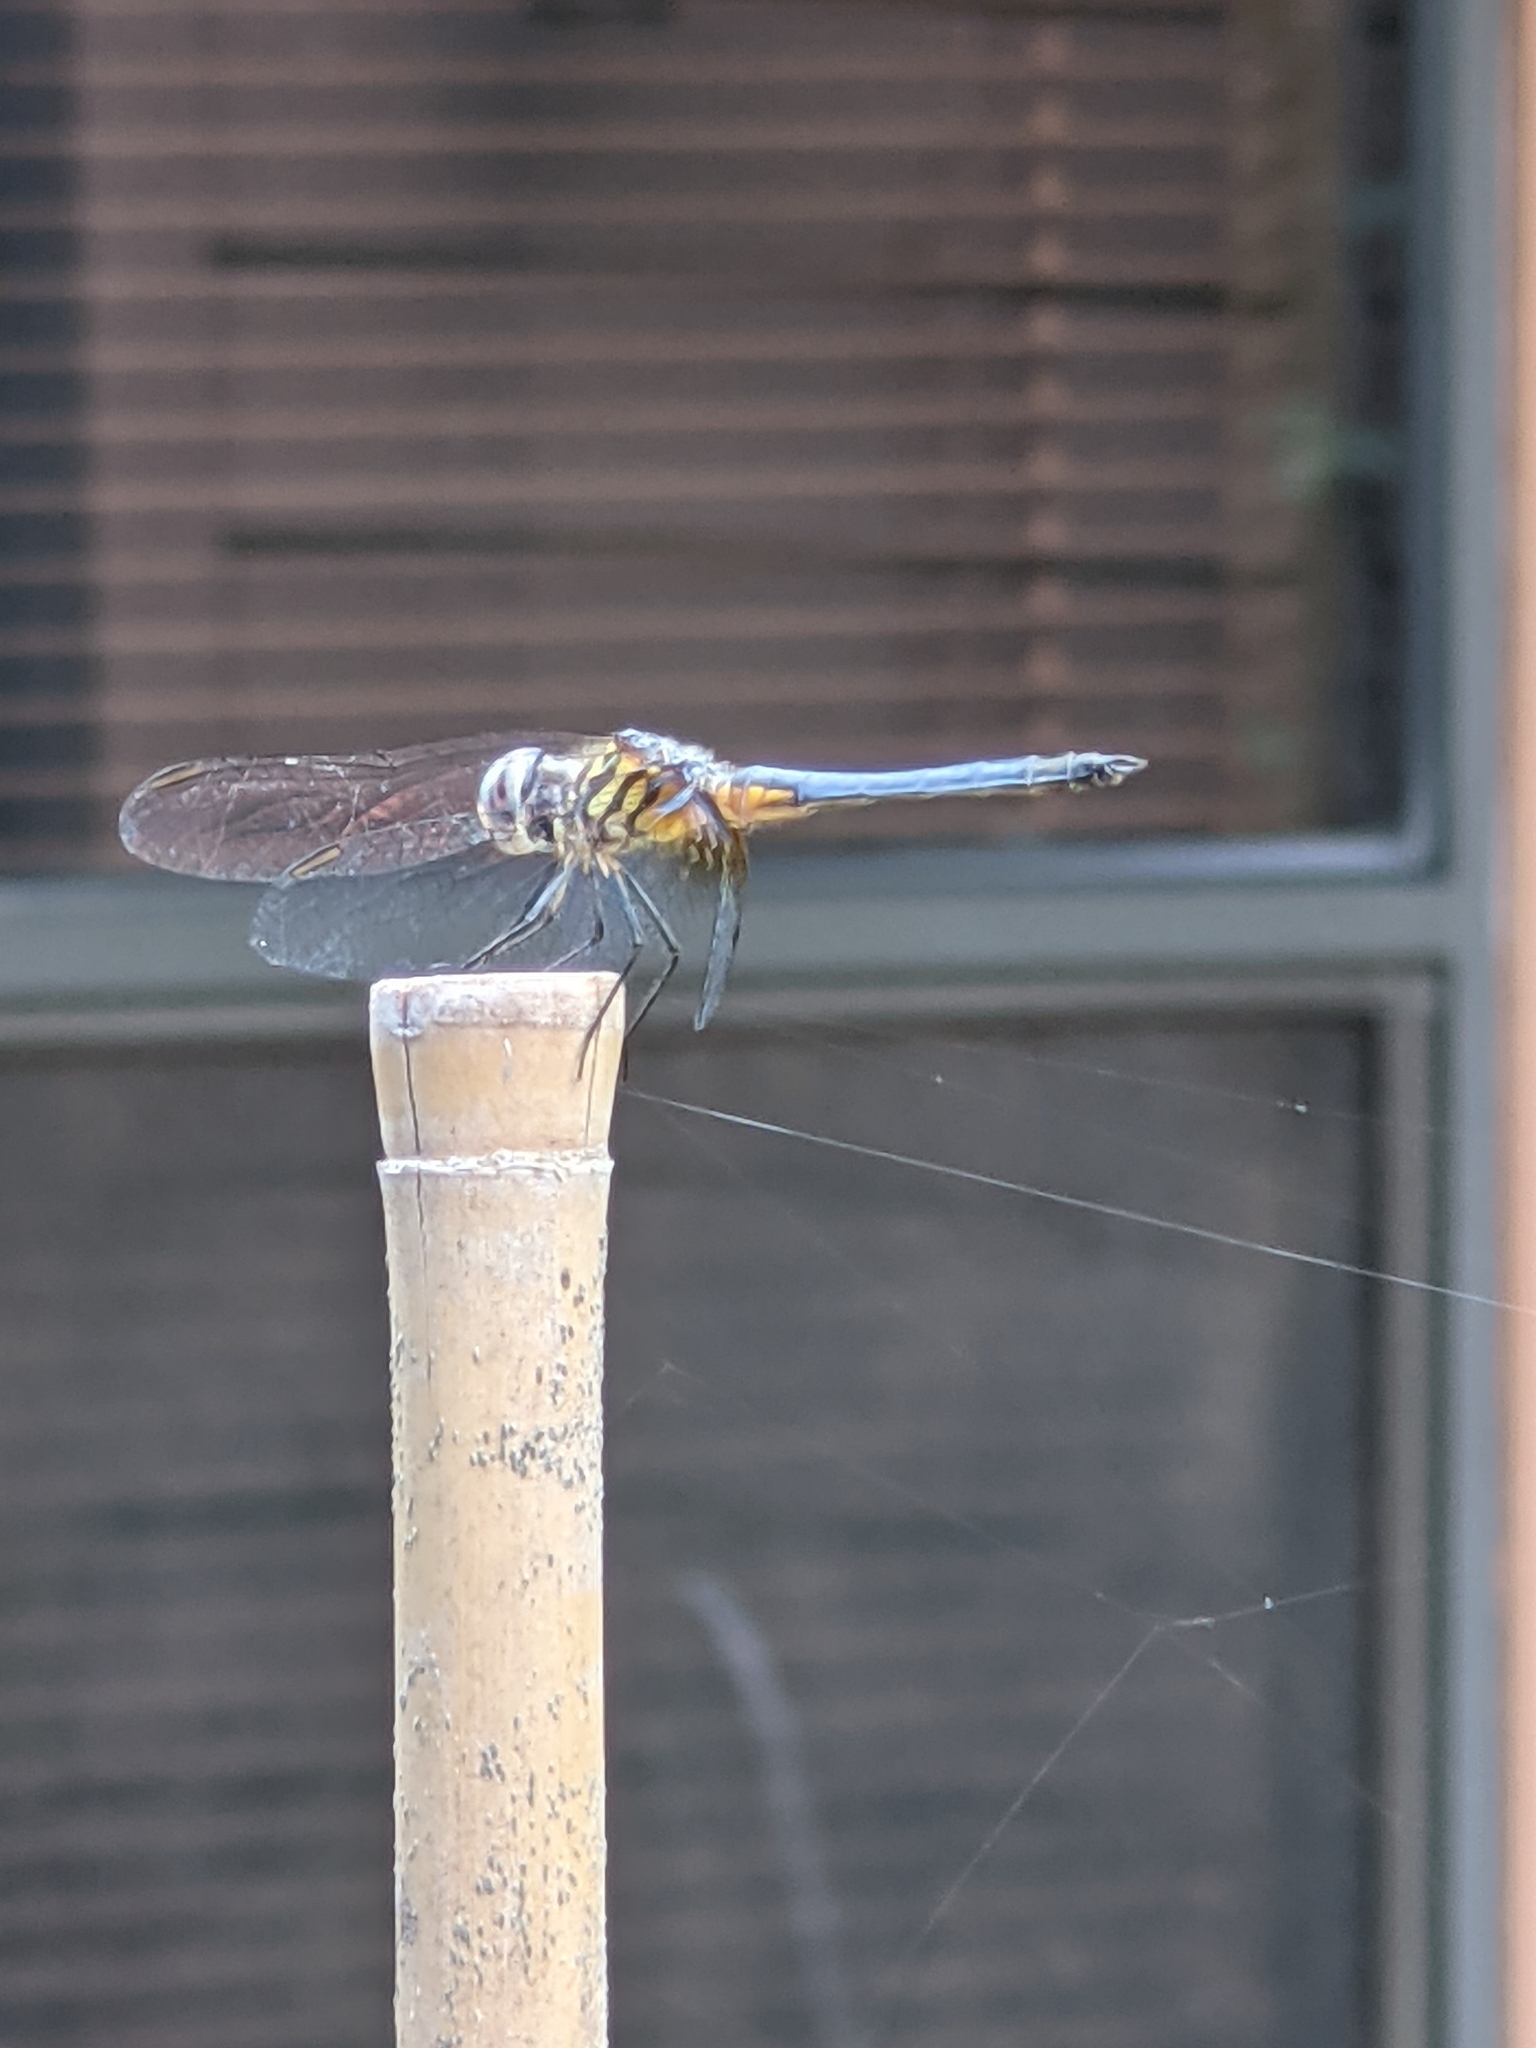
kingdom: Animalia
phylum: Arthropoda
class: Insecta
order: Odonata
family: Libellulidae
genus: Pachydiplax
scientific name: Pachydiplax longipennis
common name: Blue dasher
